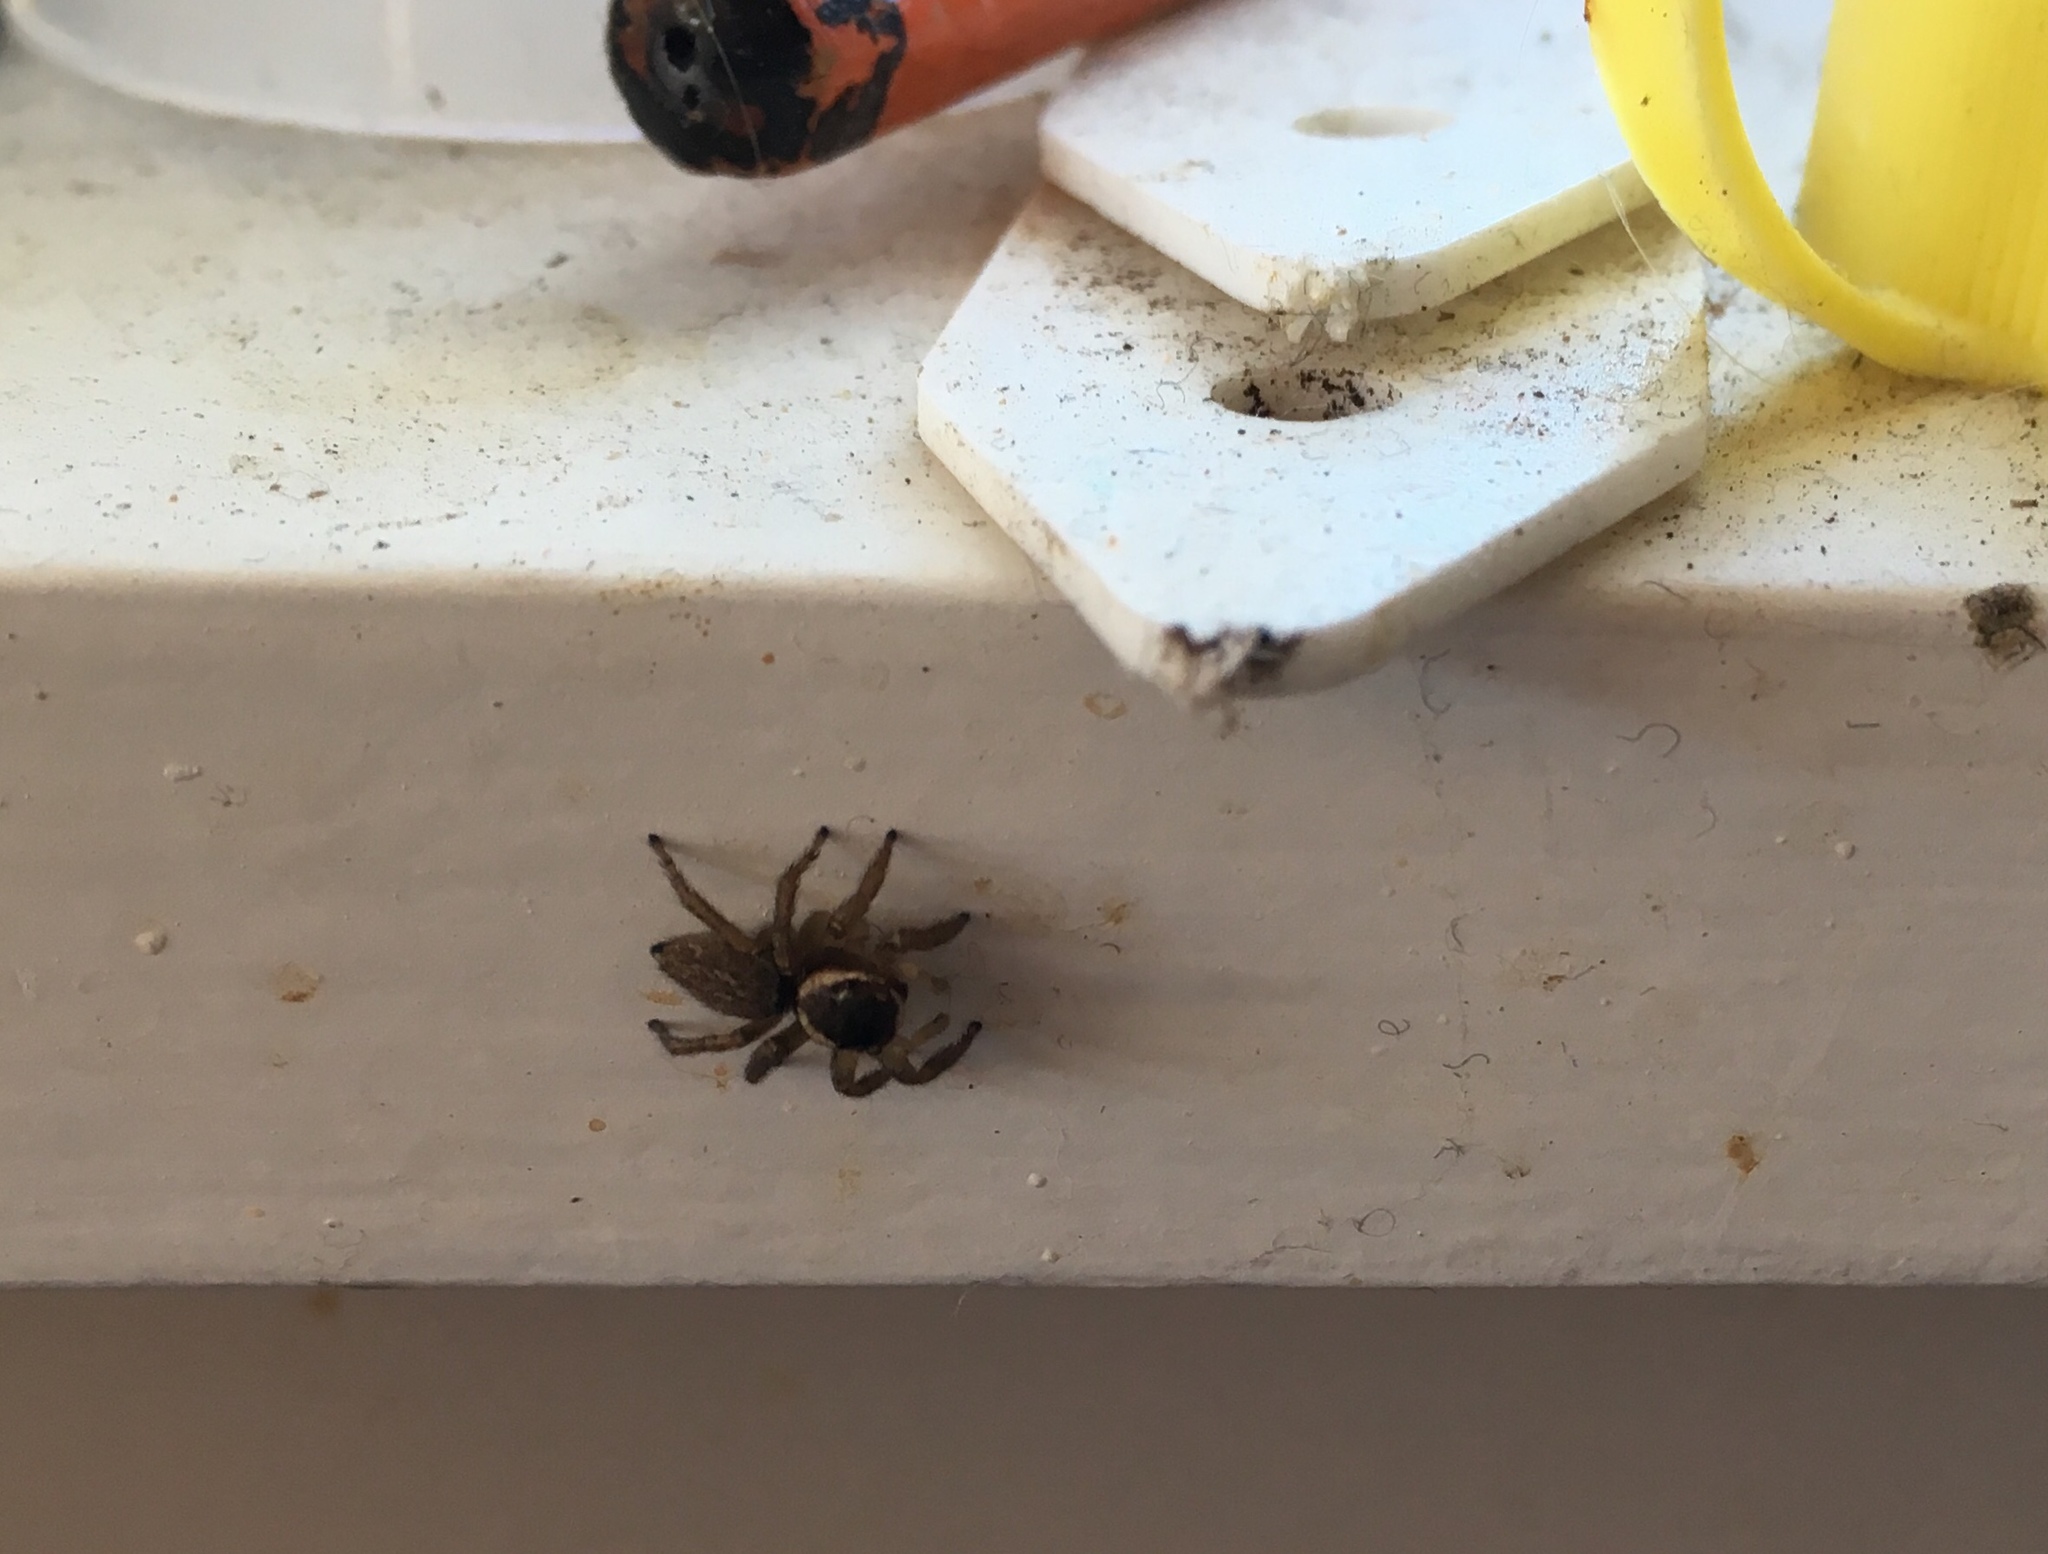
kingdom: Animalia
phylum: Arthropoda
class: Arachnida
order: Araneae
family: Salticidae
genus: Maratus
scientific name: Maratus griseus
